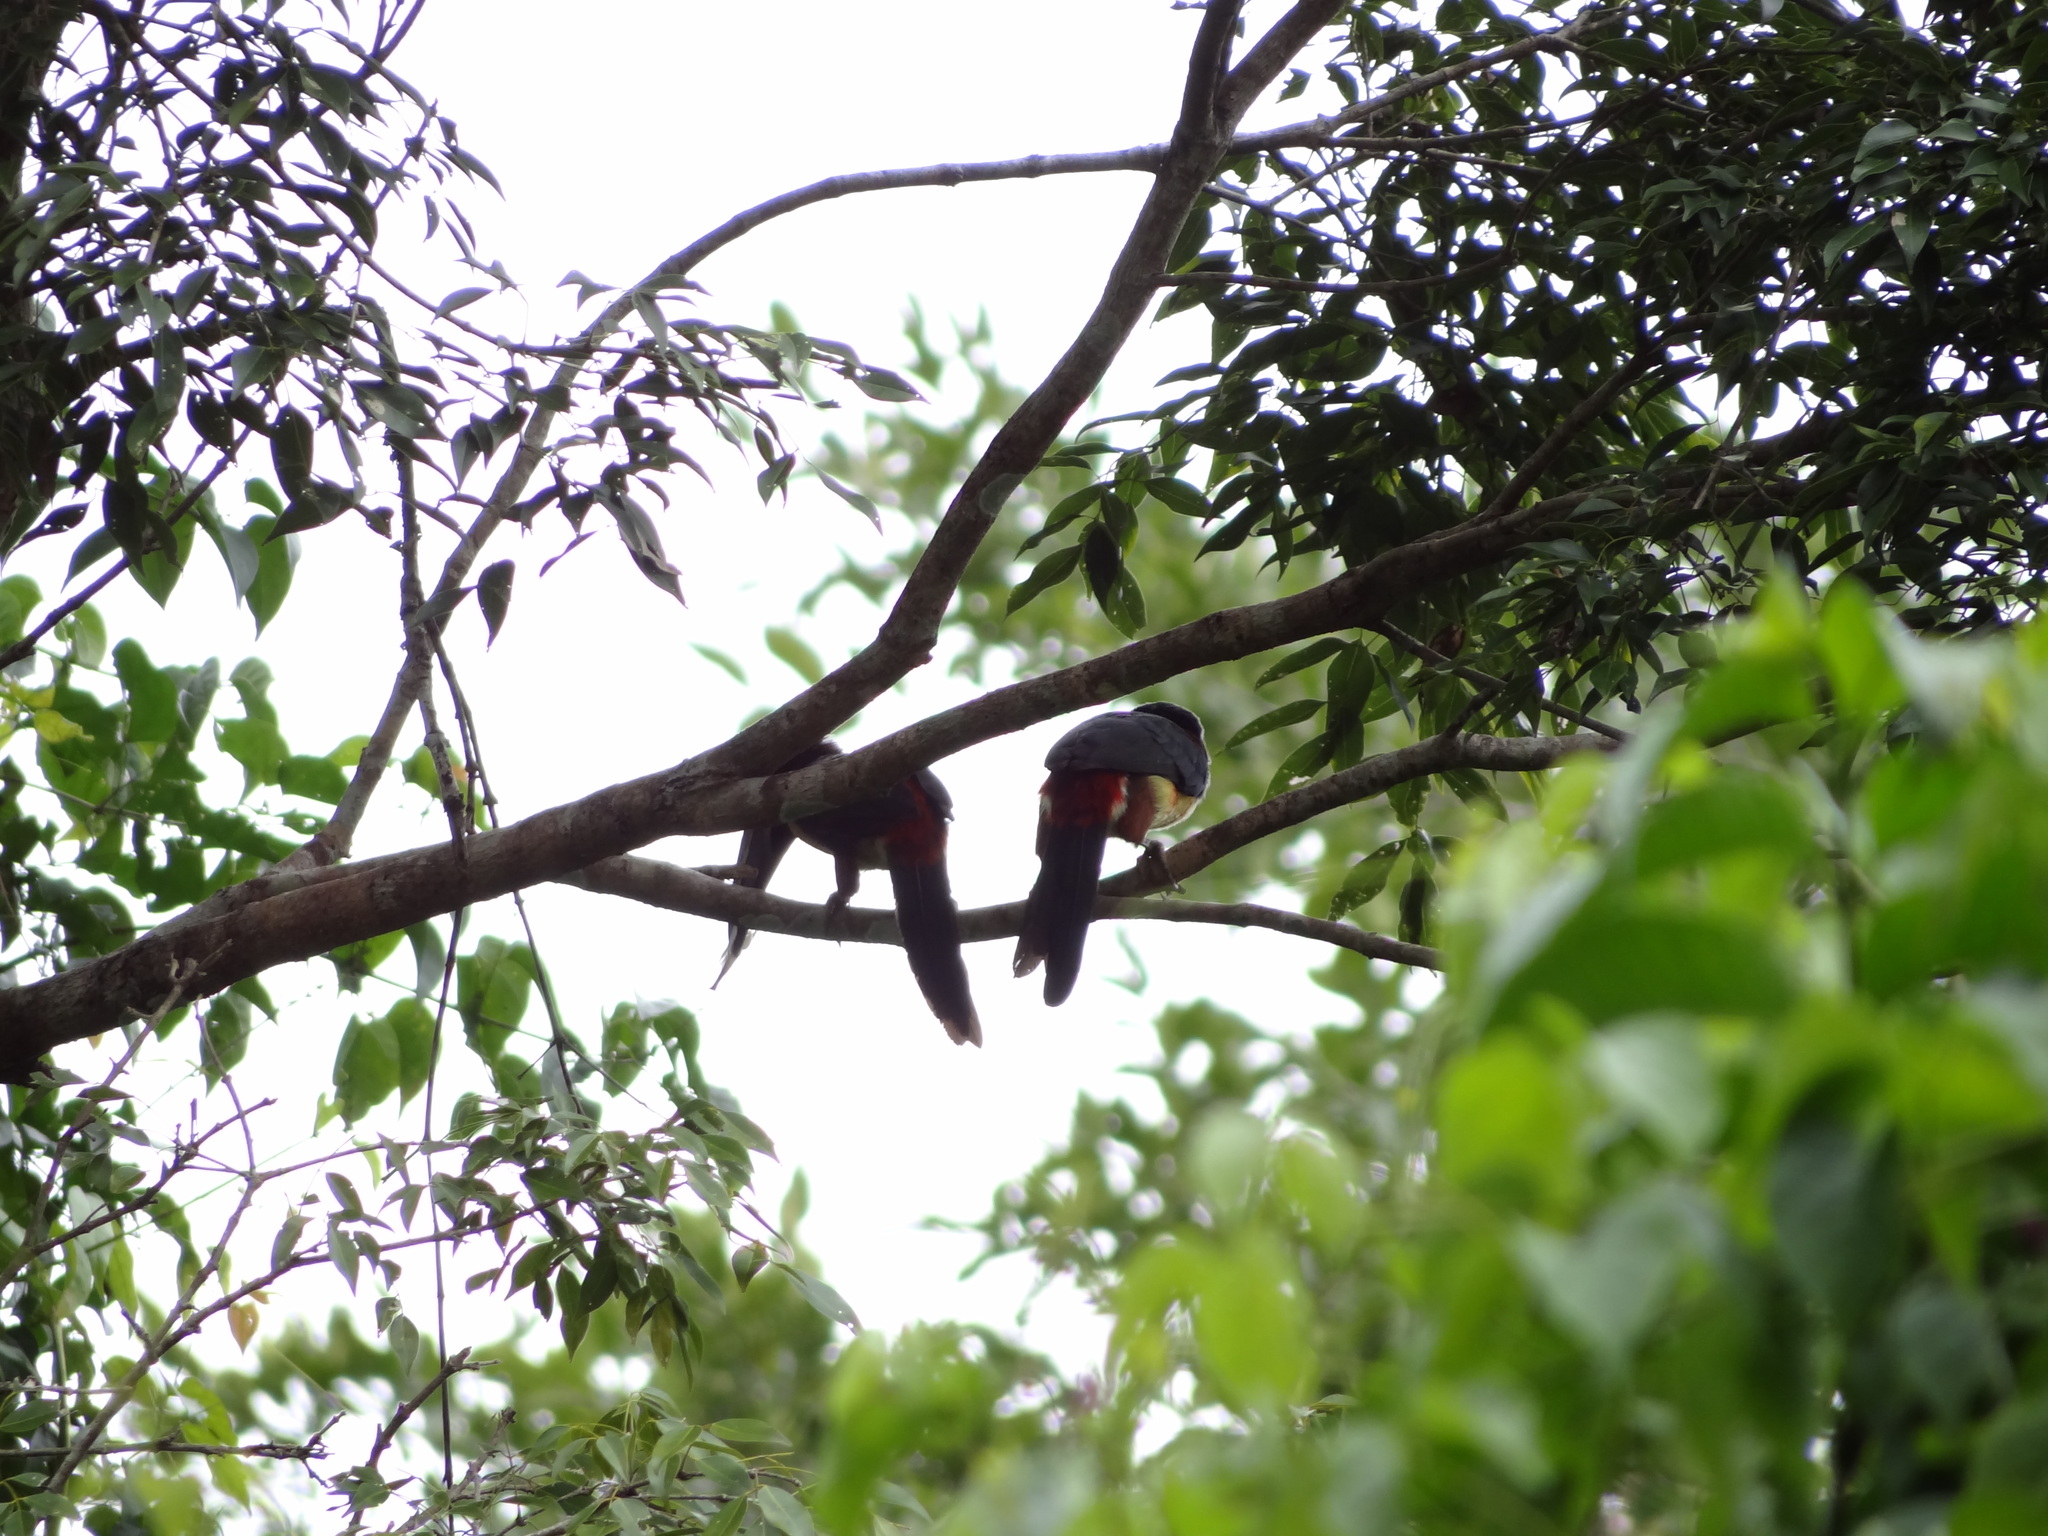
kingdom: Animalia
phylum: Chordata
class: Aves
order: Piciformes
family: Ramphastidae
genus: Pteroglossus
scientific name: Pteroglossus torquatus
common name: Collared aracari
